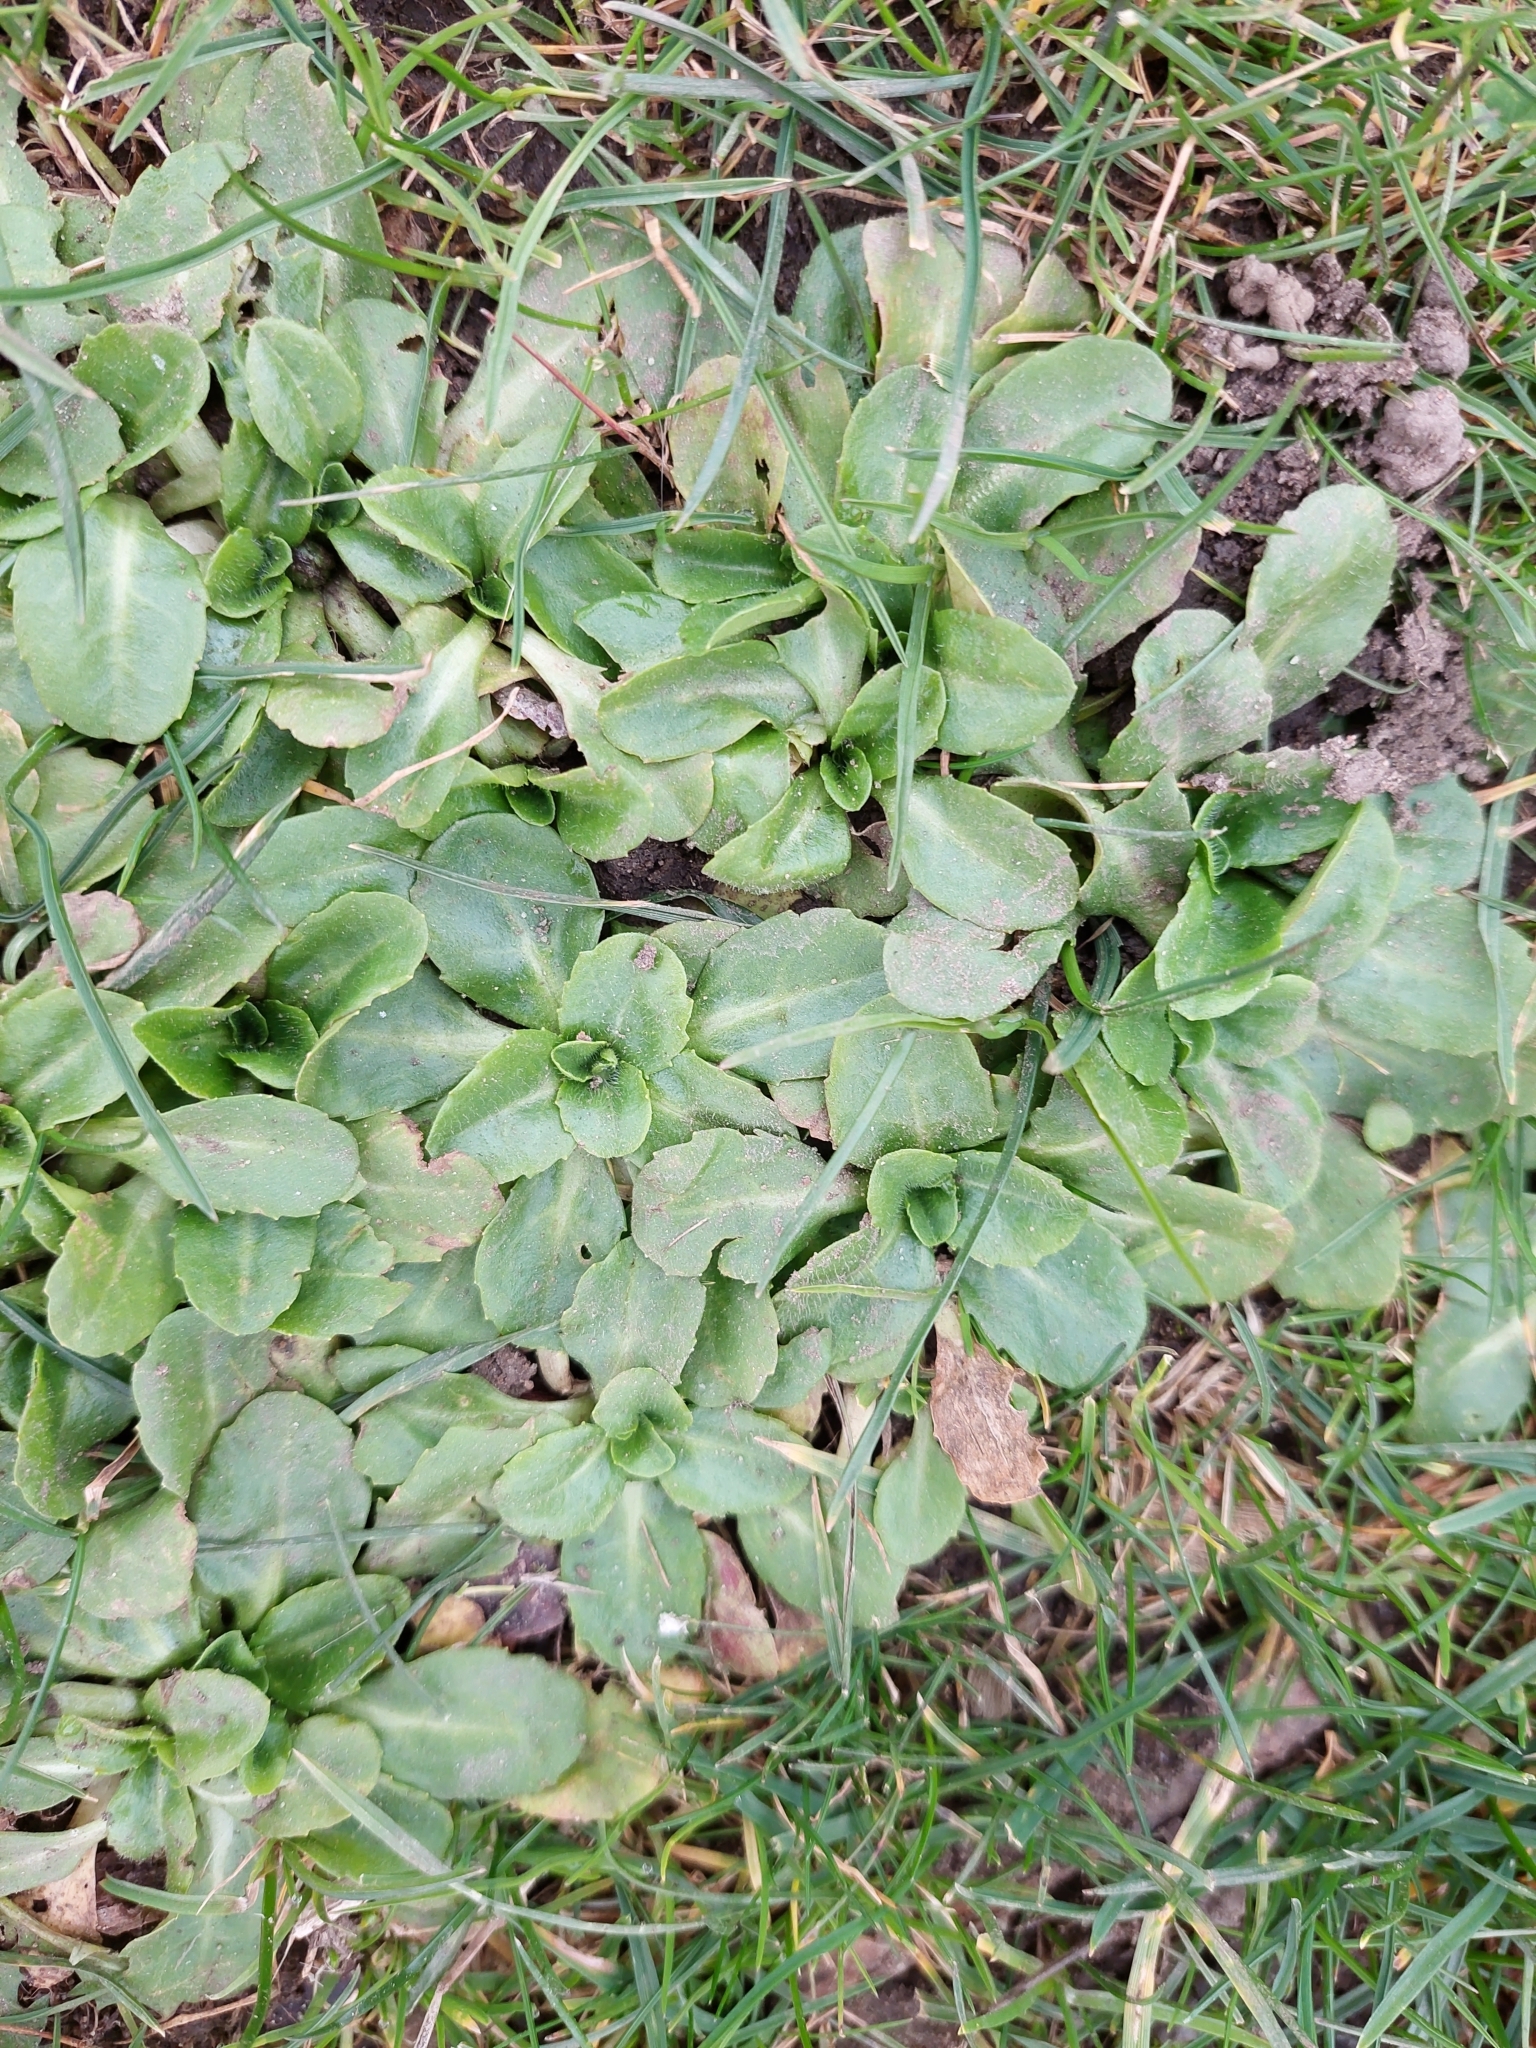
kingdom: Plantae
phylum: Tracheophyta
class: Magnoliopsida
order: Asterales
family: Asteraceae
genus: Bellis
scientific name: Bellis perennis
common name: Lawndaisy
